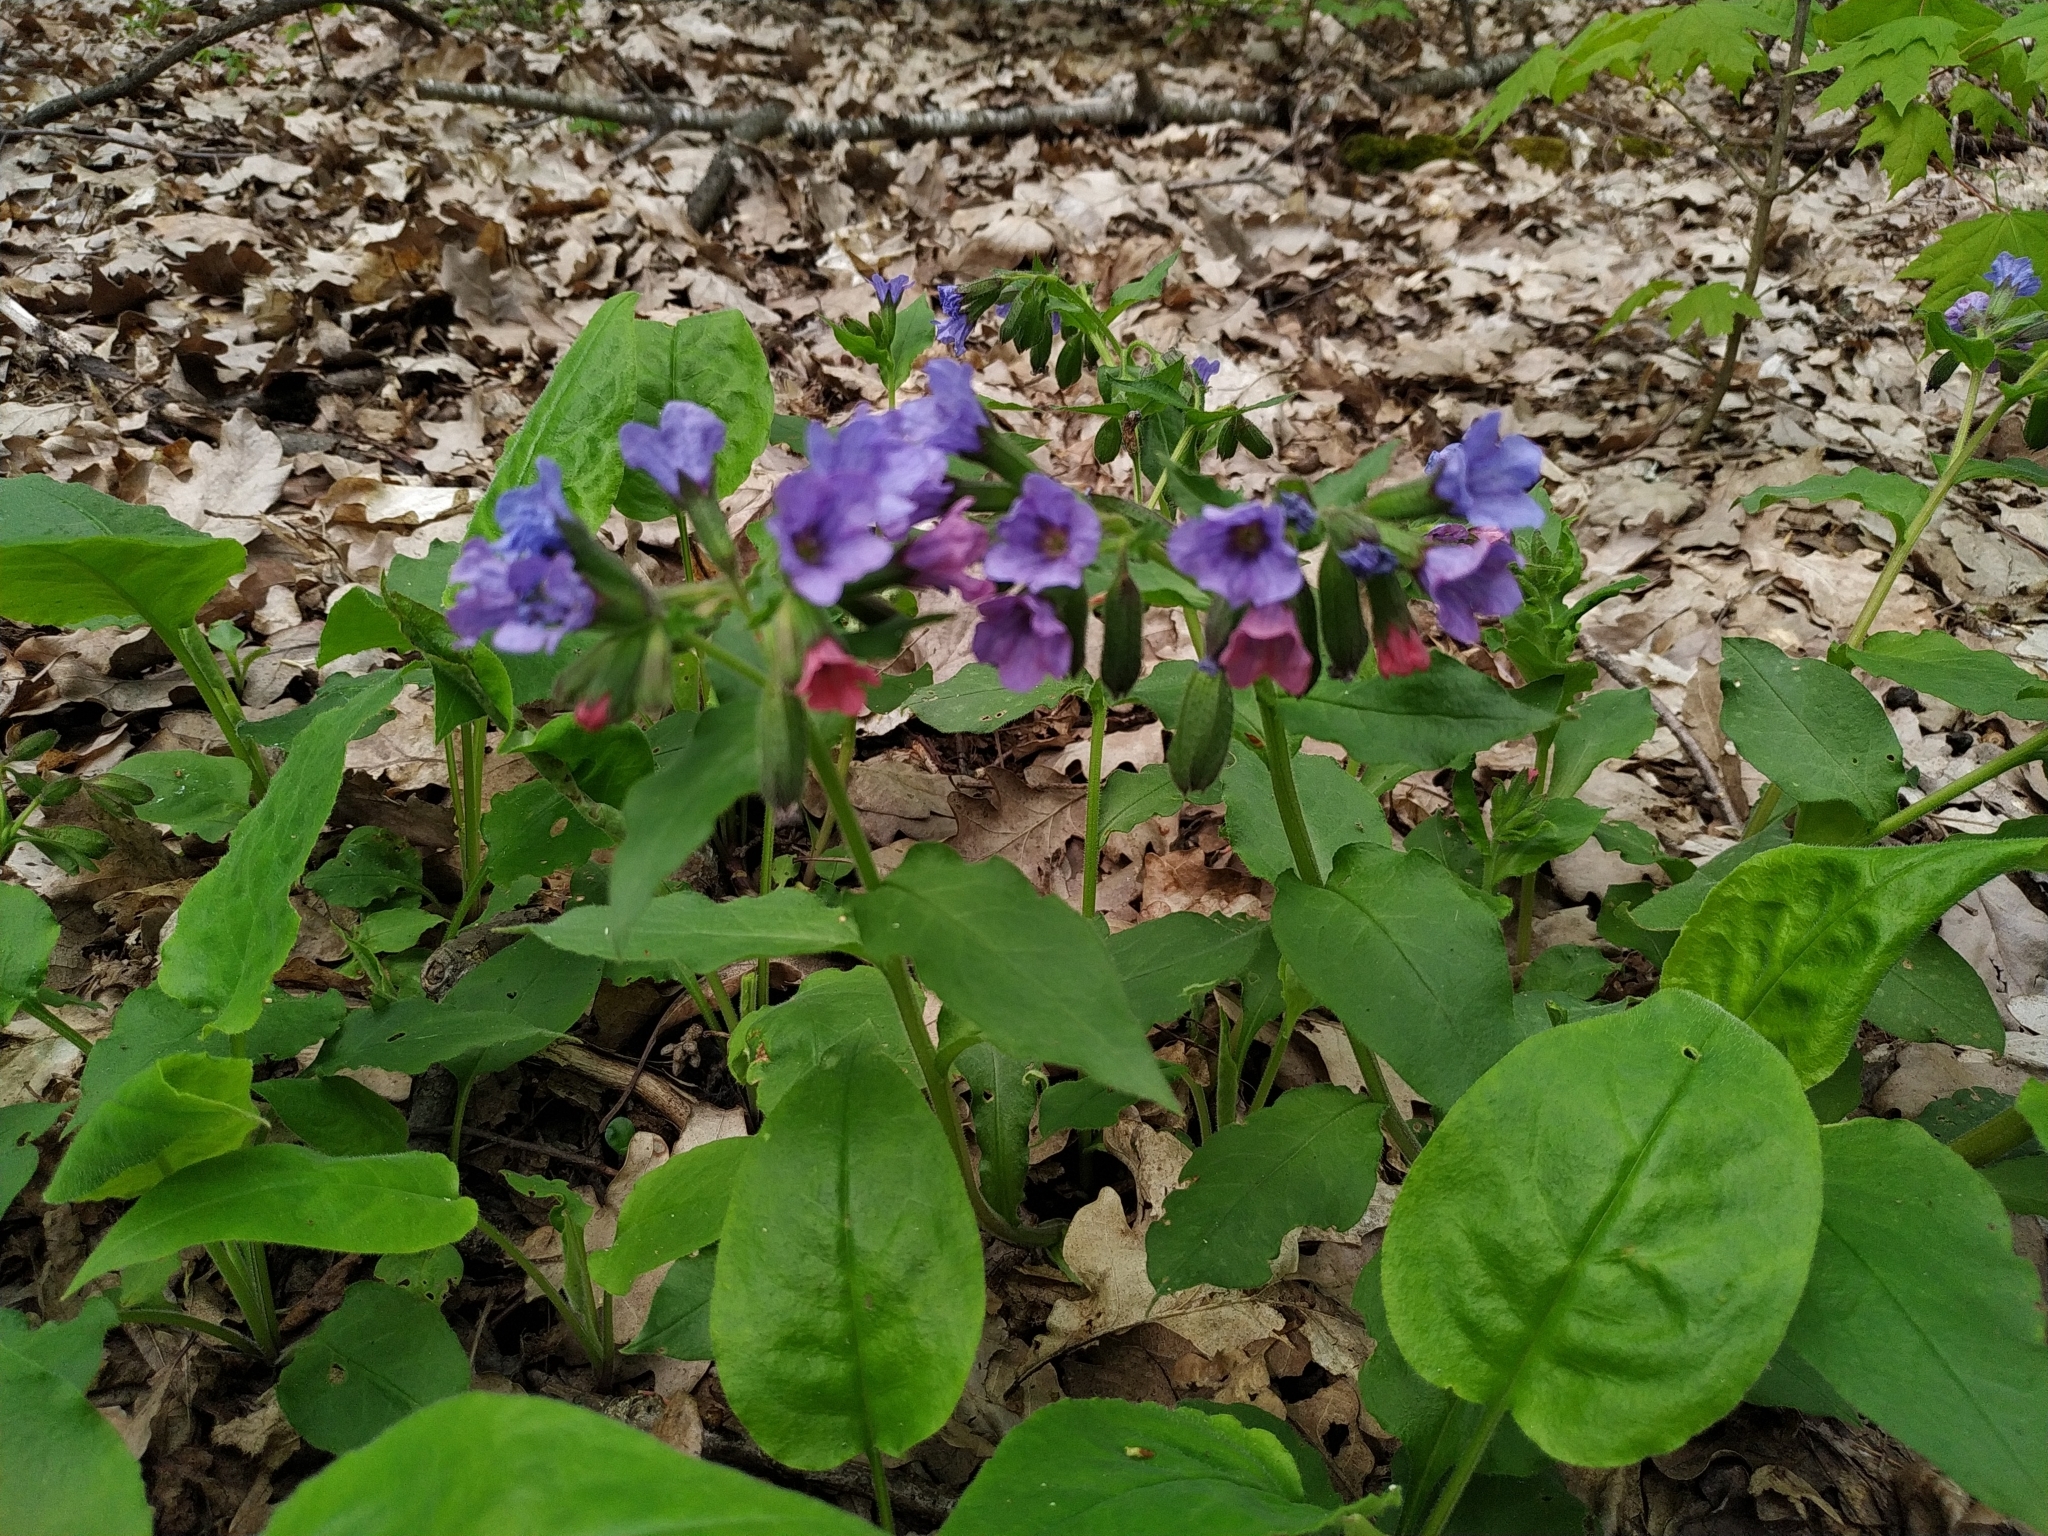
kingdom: Plantae
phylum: Tracheophyta
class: Magnoliopsida
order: Boraginales
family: Boraginaceae
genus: Pulmonaria
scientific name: Pulmonaria obscura
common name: Suffolk lungwort
